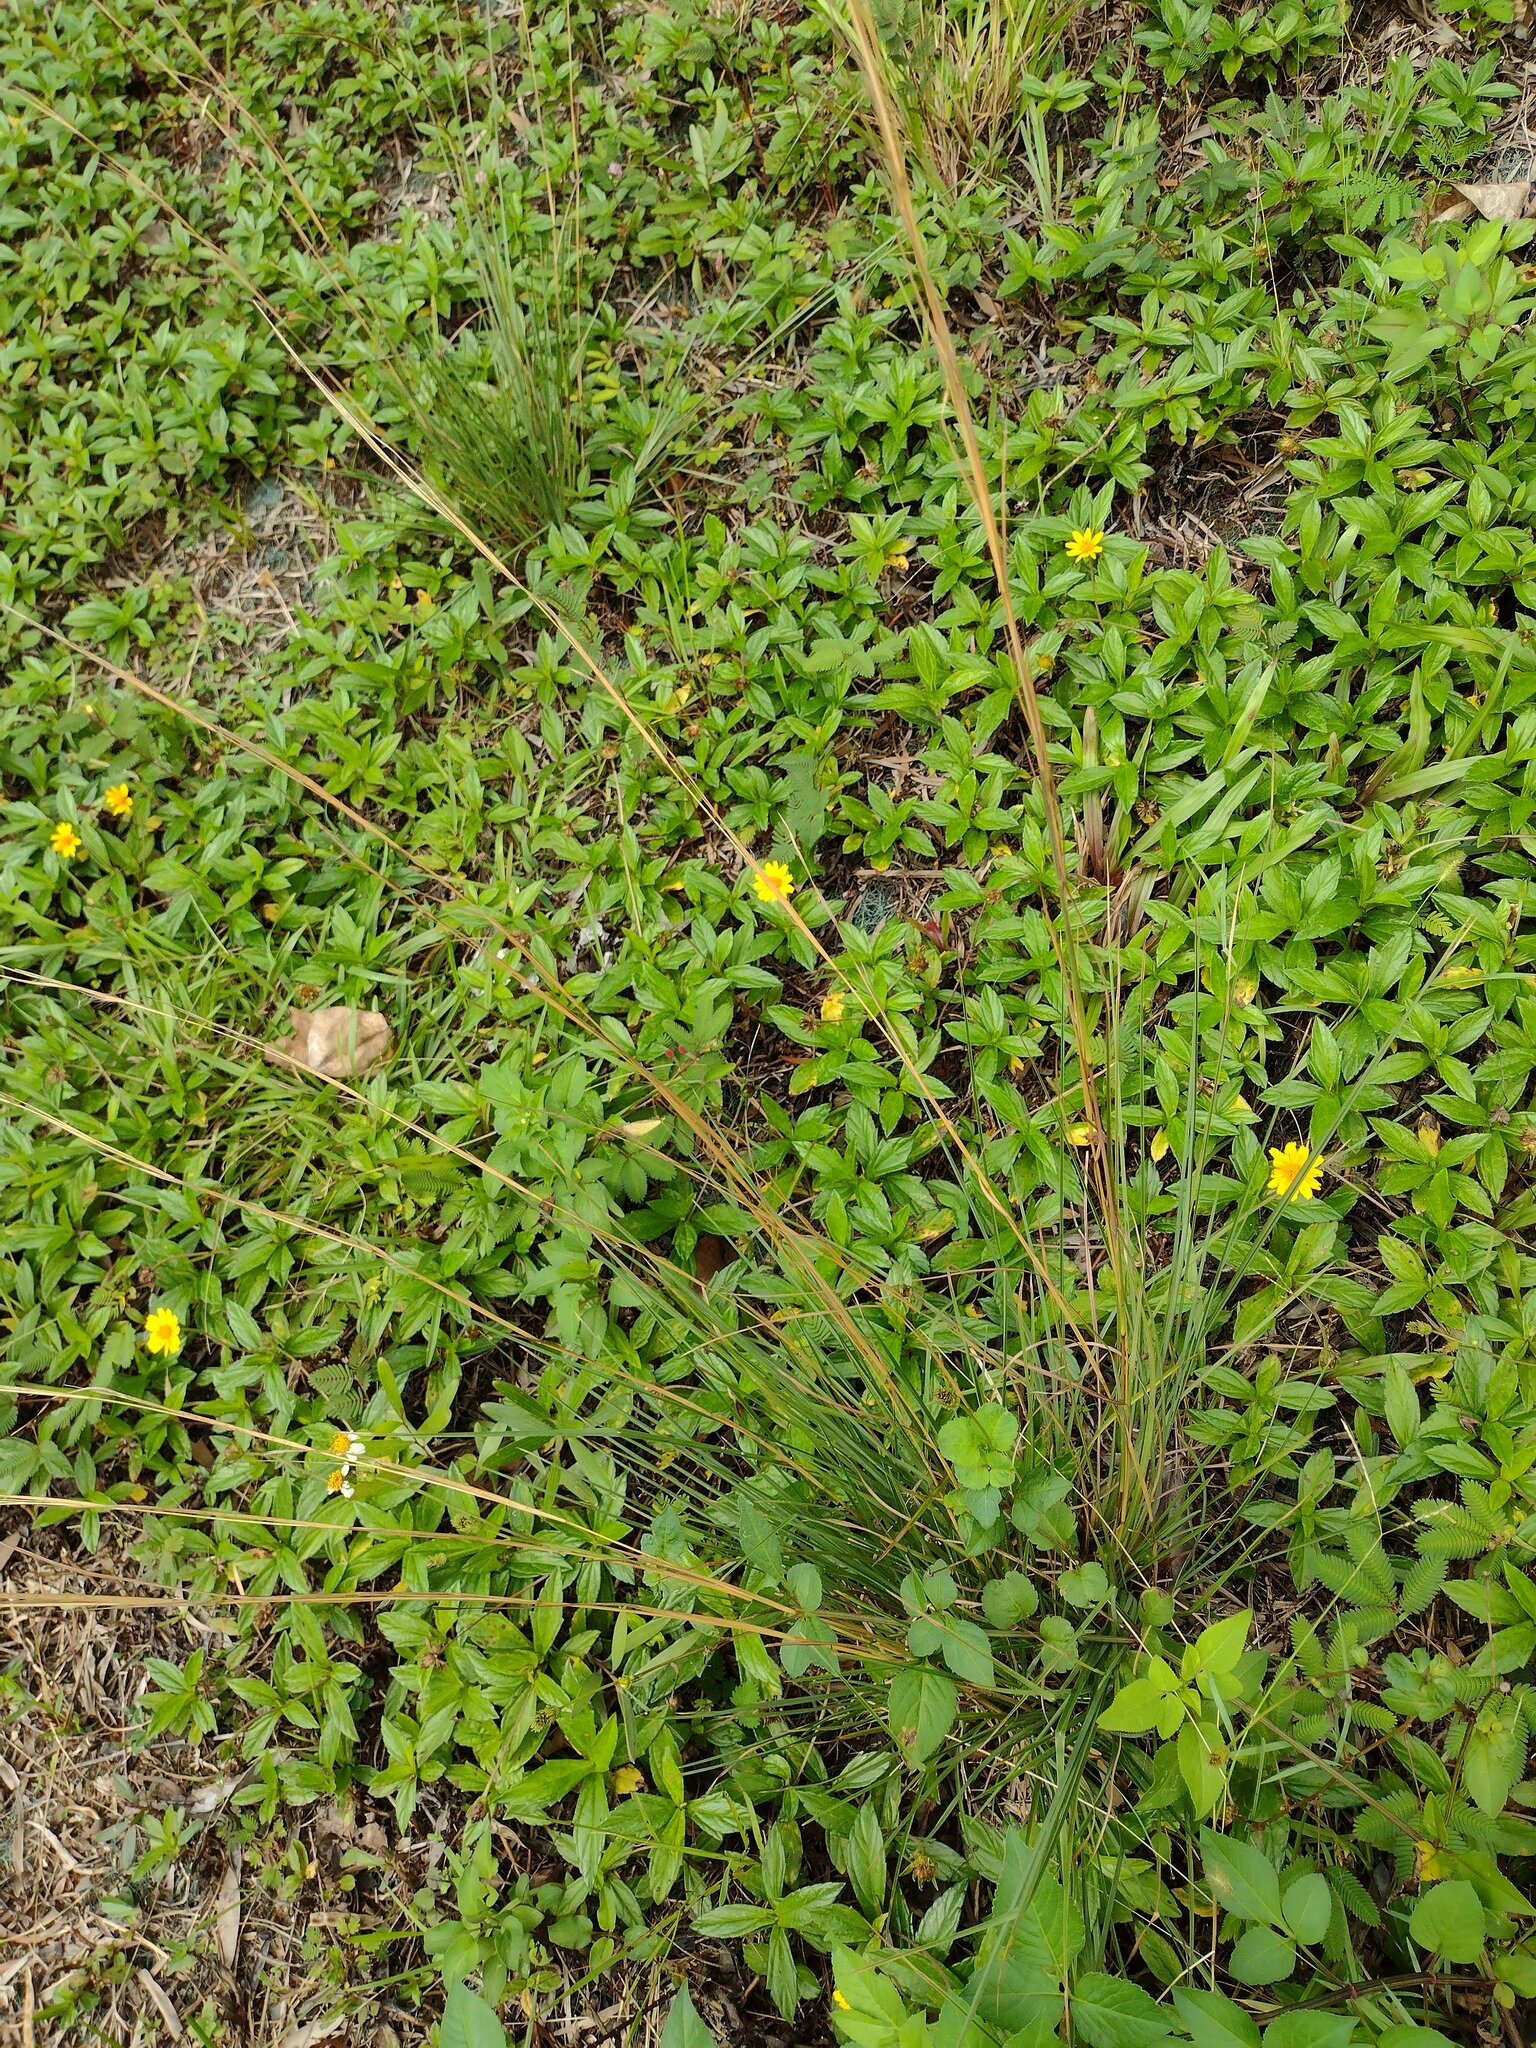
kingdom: Plantae
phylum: Tracheophyta
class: Liliopsida
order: Poales
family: Poaceae
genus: Andropogon
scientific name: Andropogon virginicus
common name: Broomsedge bluestem
